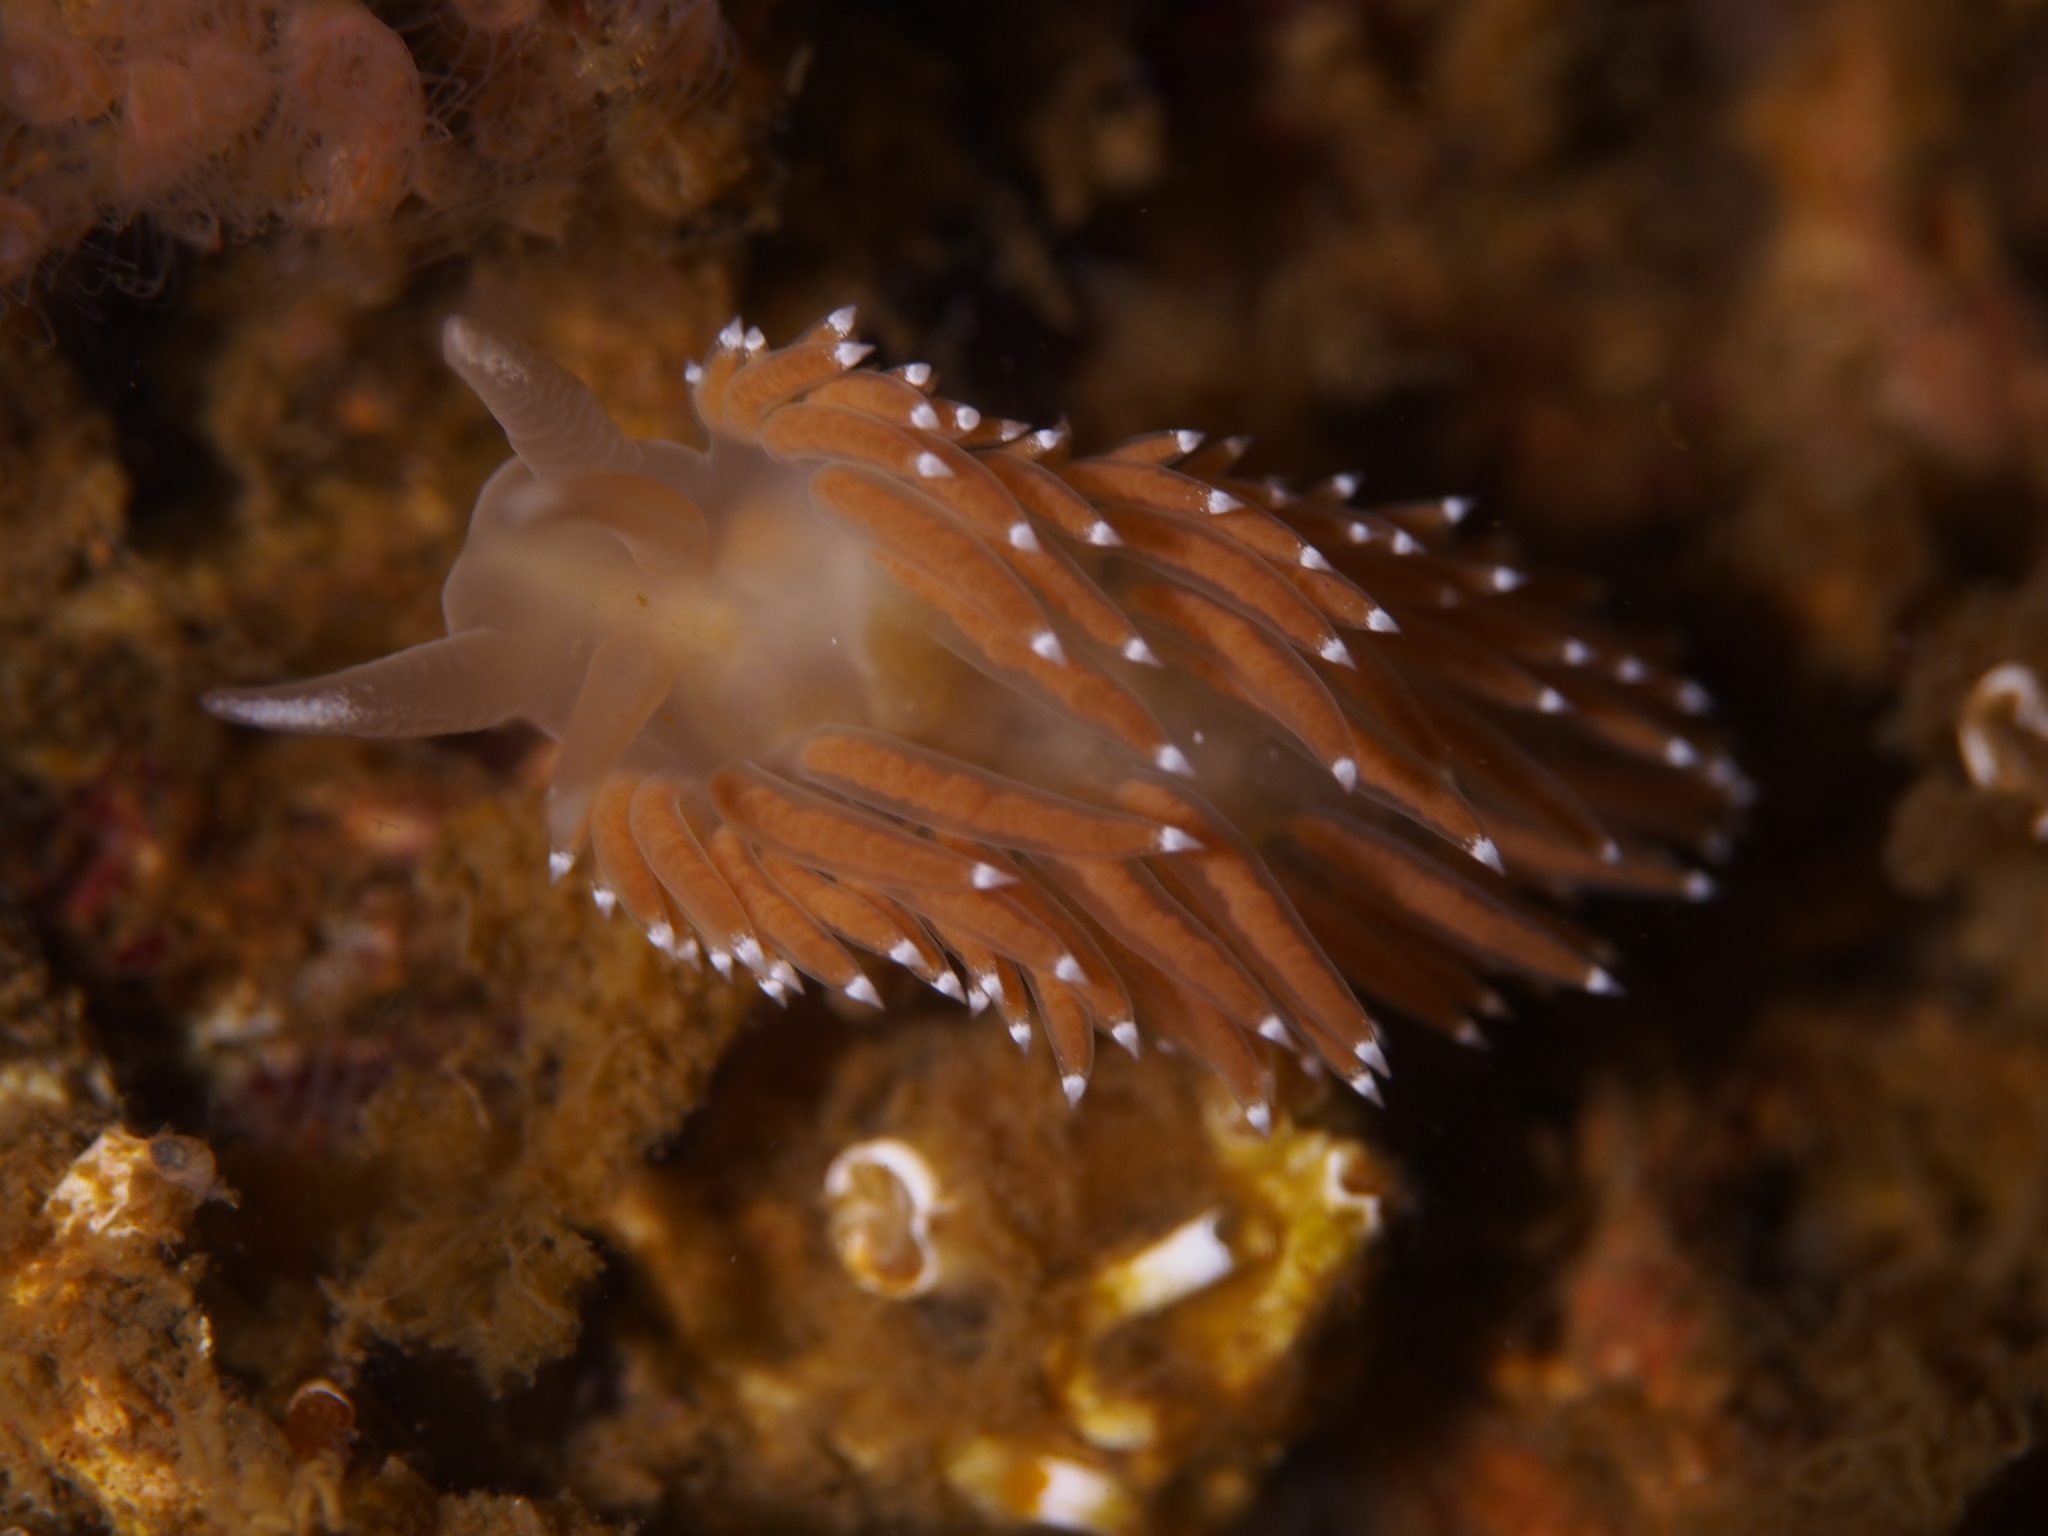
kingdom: Animalia
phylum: Mollusca
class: Gastropoda
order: Nudibranchia
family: Coryphellidae
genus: Coryphella
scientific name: Coryphella nobilis
